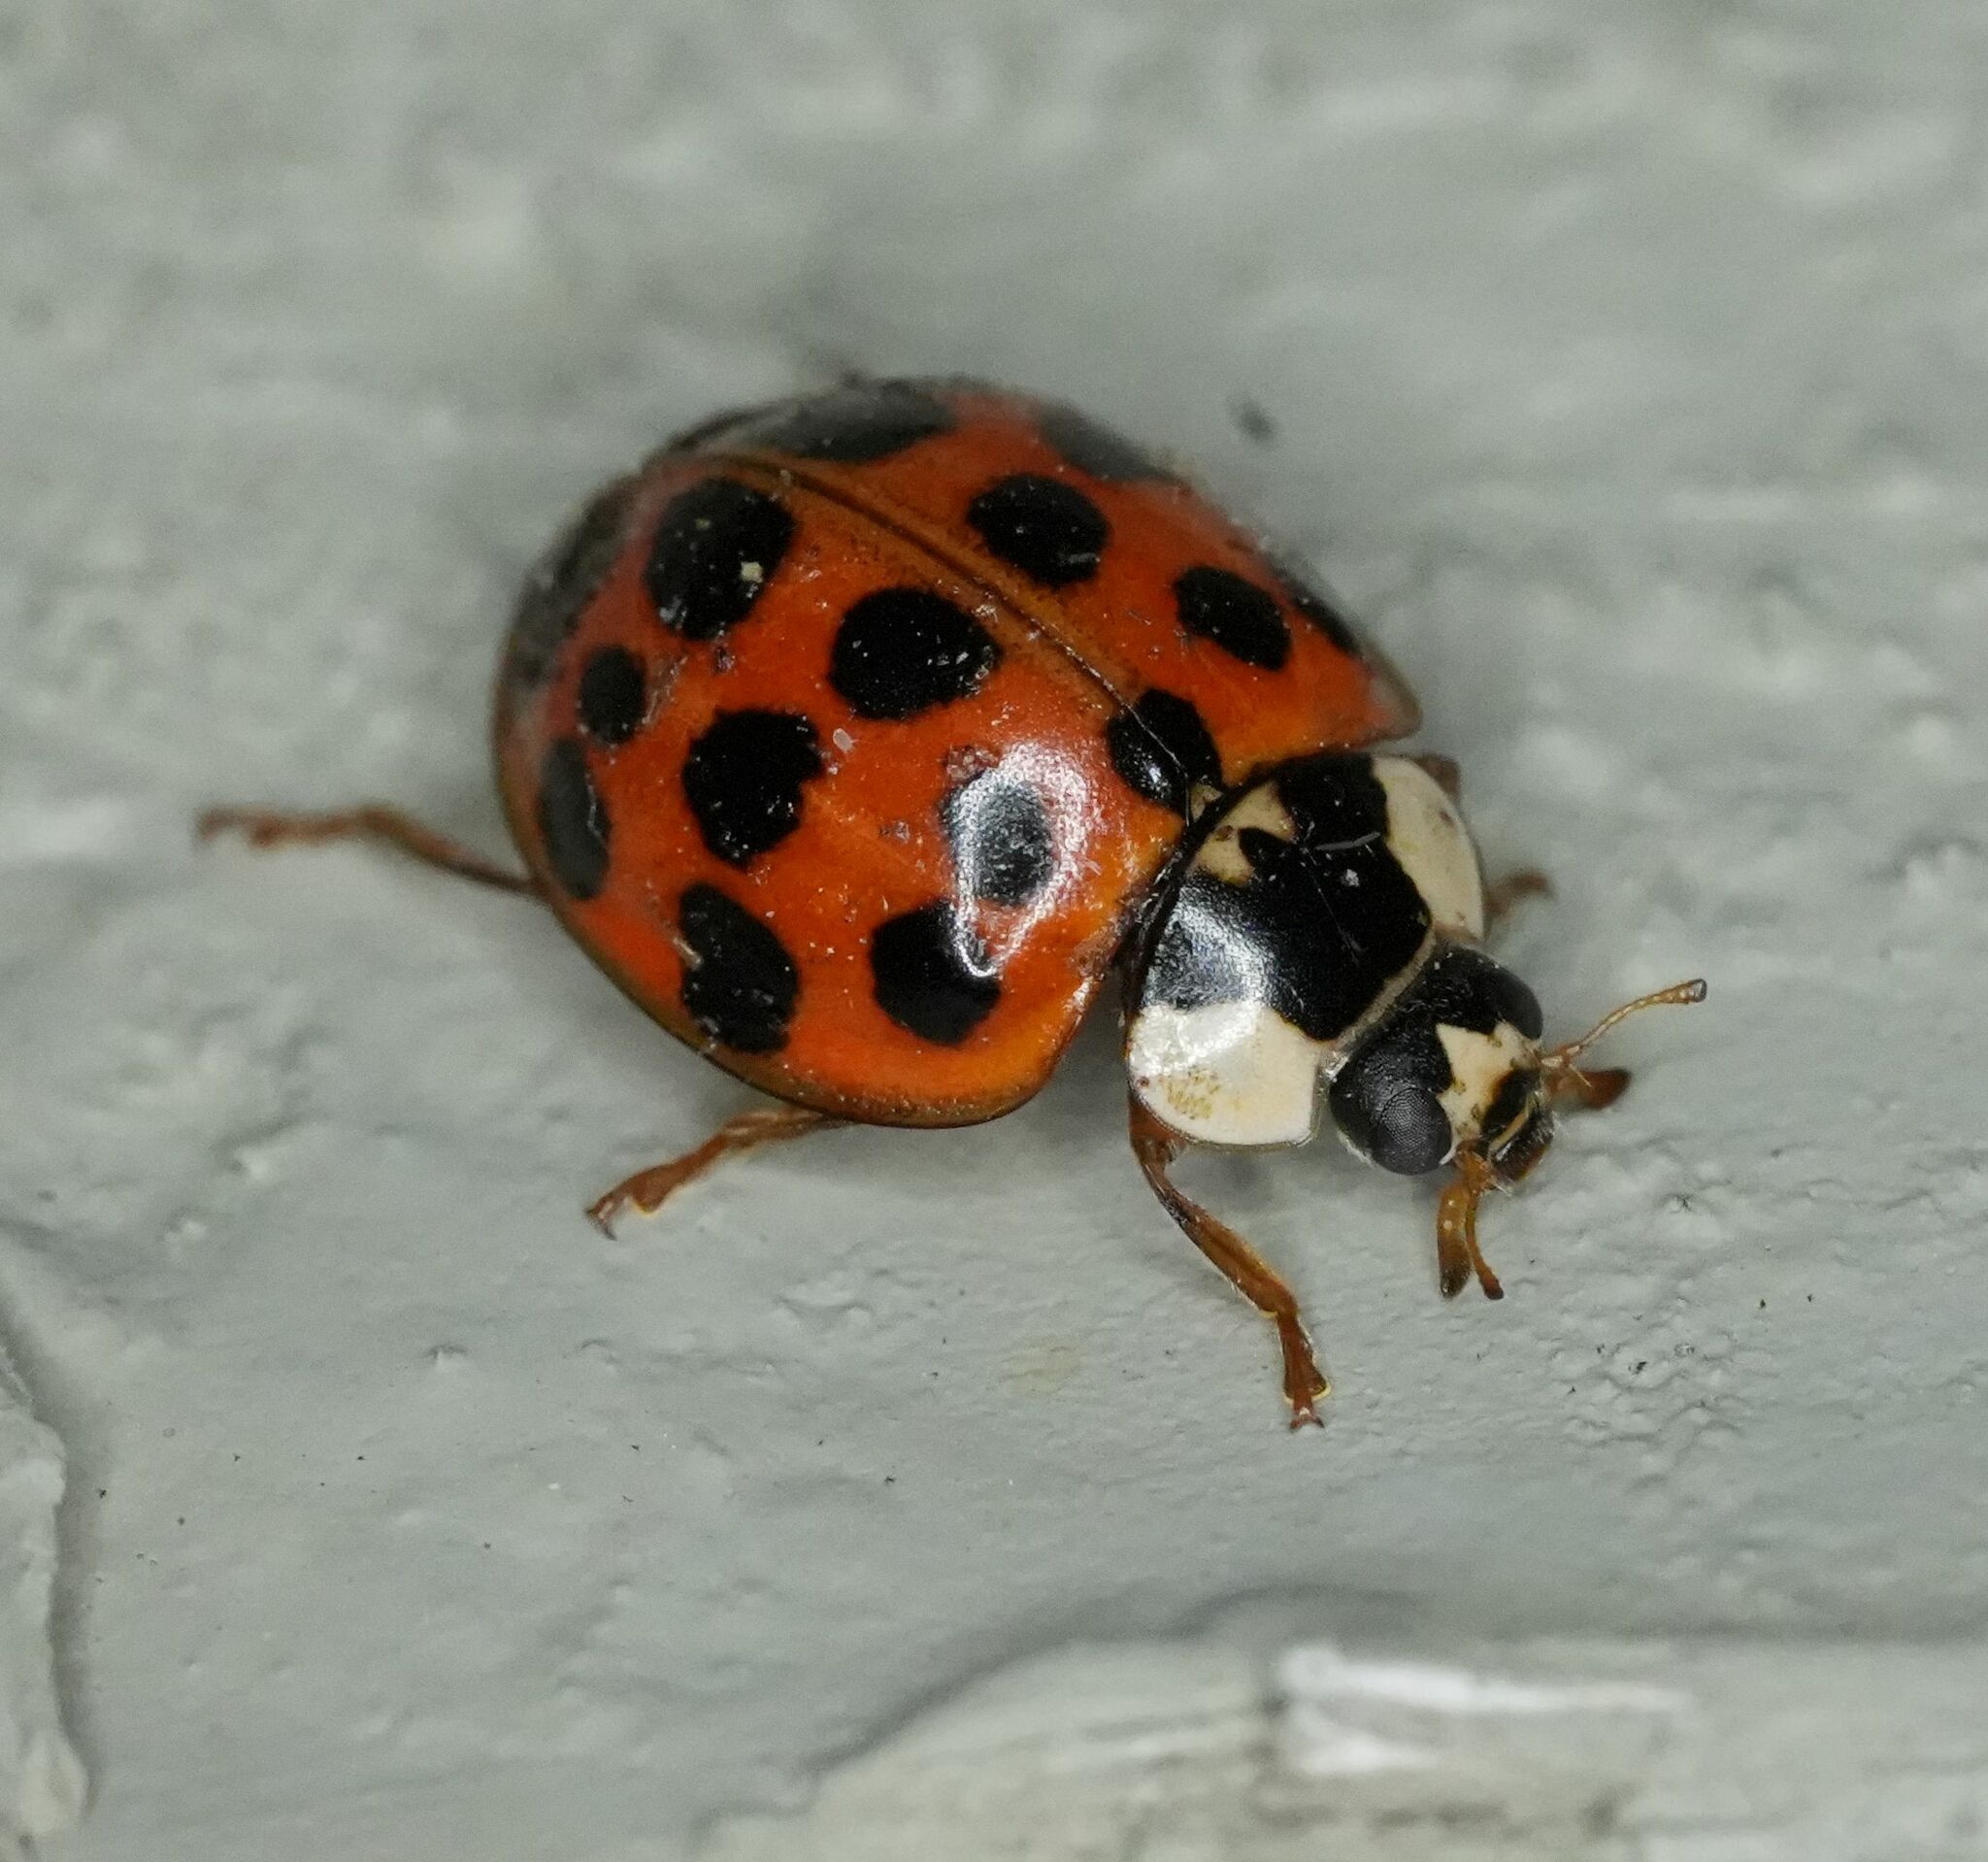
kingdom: Animalia
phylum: Arthropoda
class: Insecta
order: Coleoptera
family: Coccinellidae
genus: Harmonia
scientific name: Harmonia axyridis
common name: Harlequin ladybird
